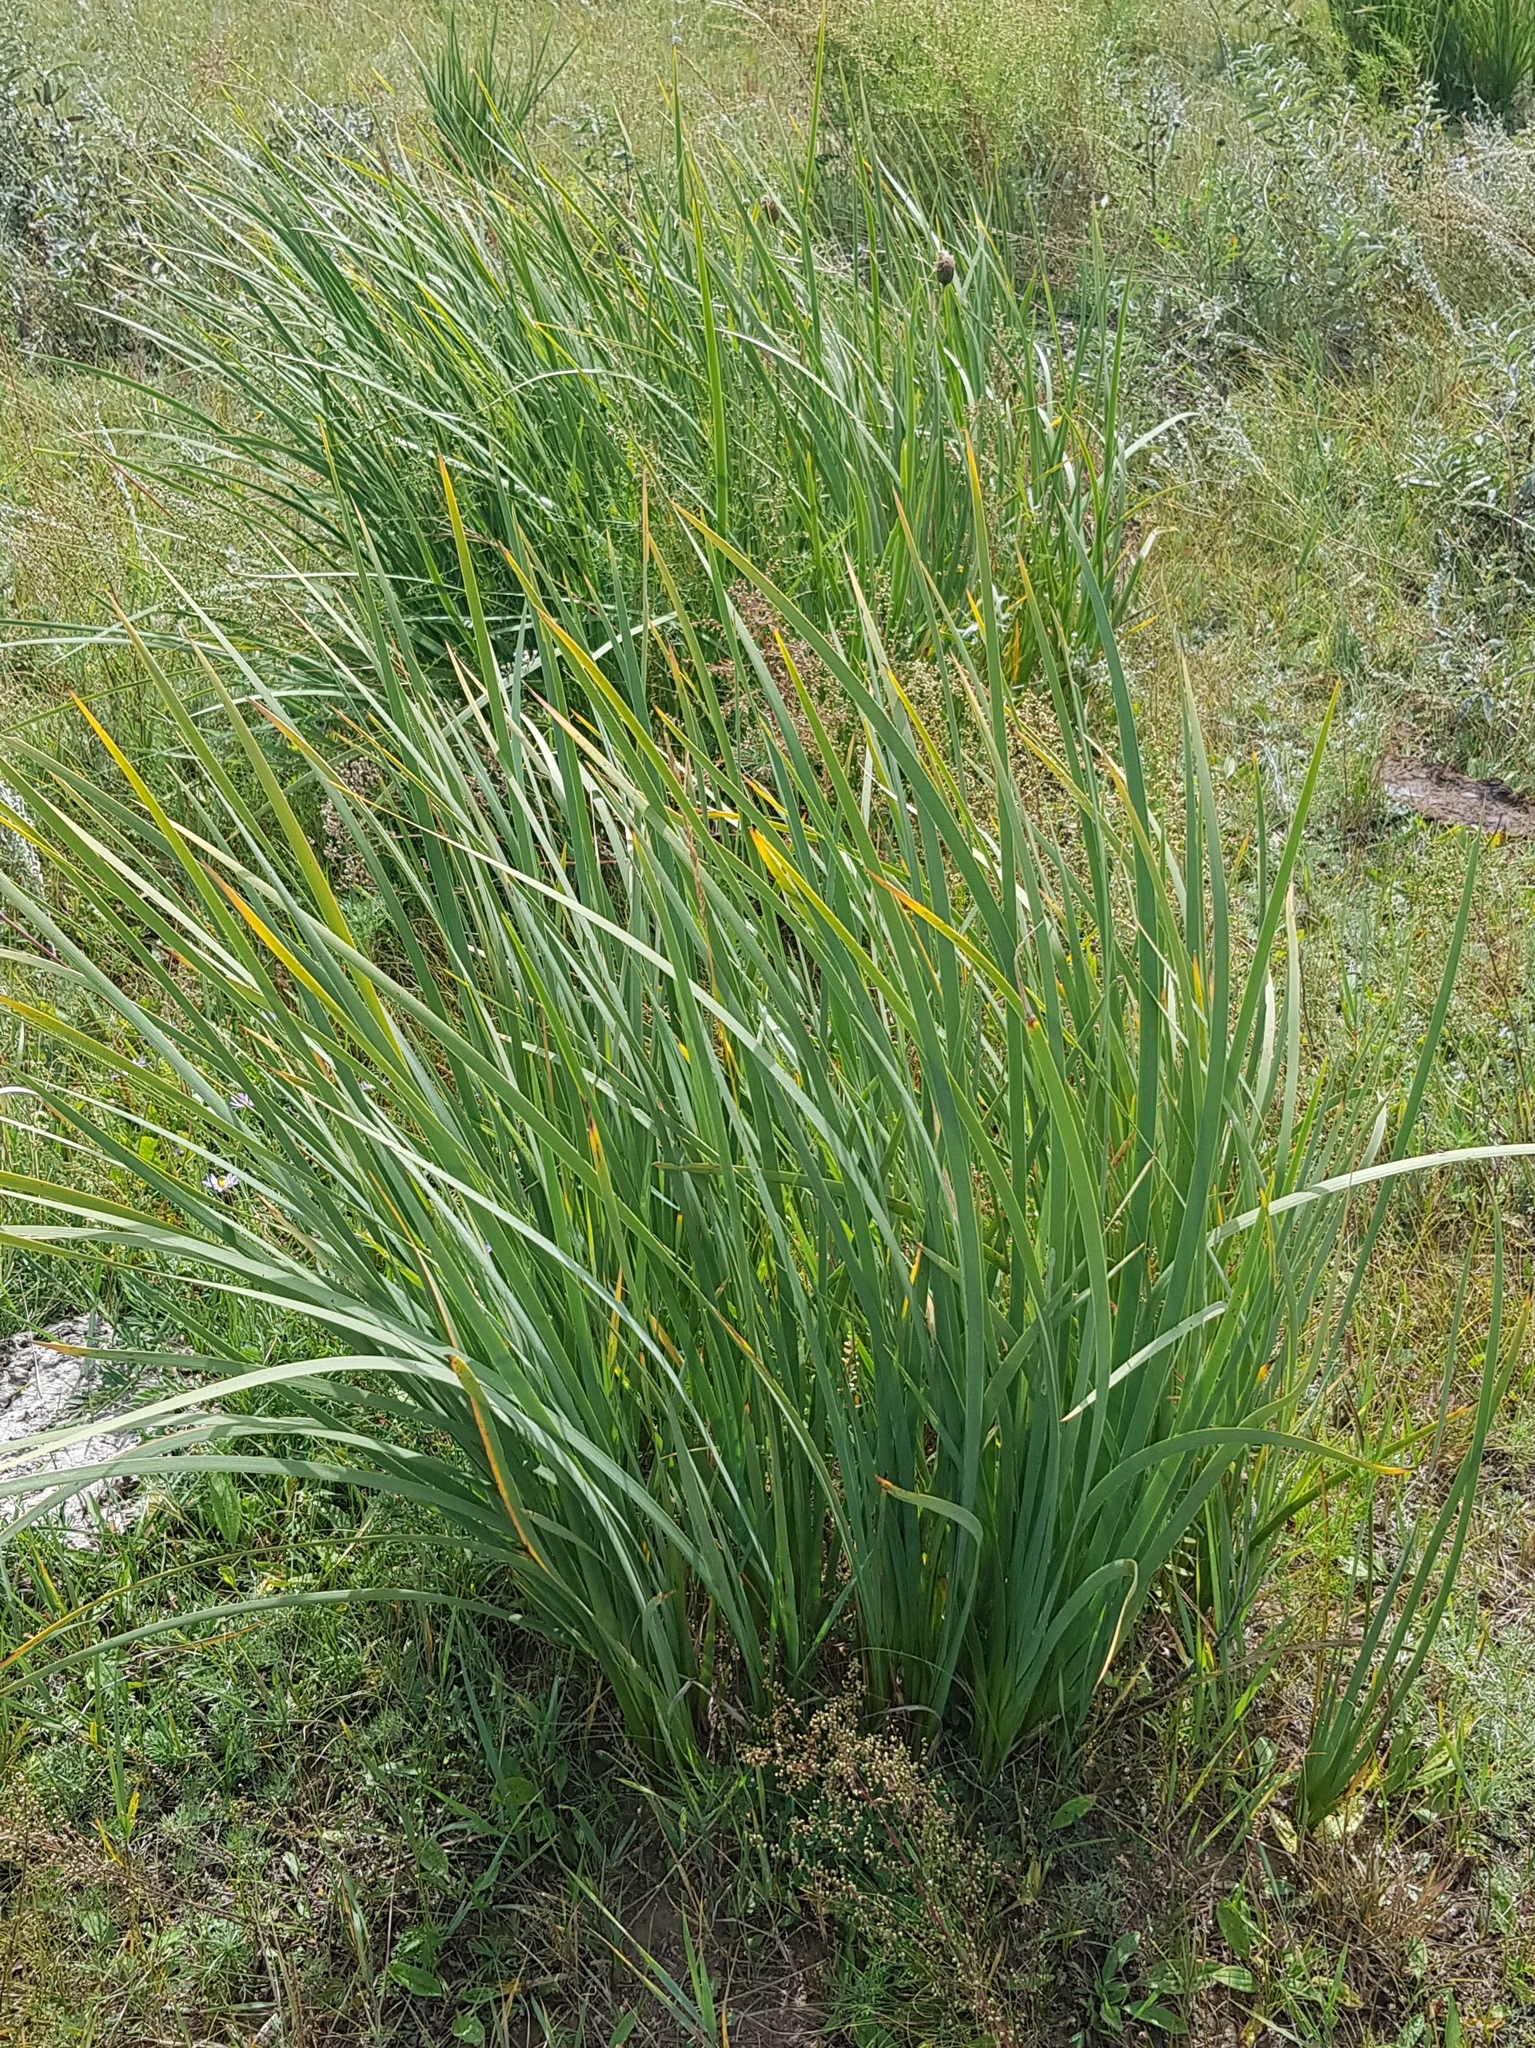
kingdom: Plantae
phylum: Tracheophyta
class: Liliopsida
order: Asparagales
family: Iridaceae
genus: Iris
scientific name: Iris lactea
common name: White-flower chinese iris
